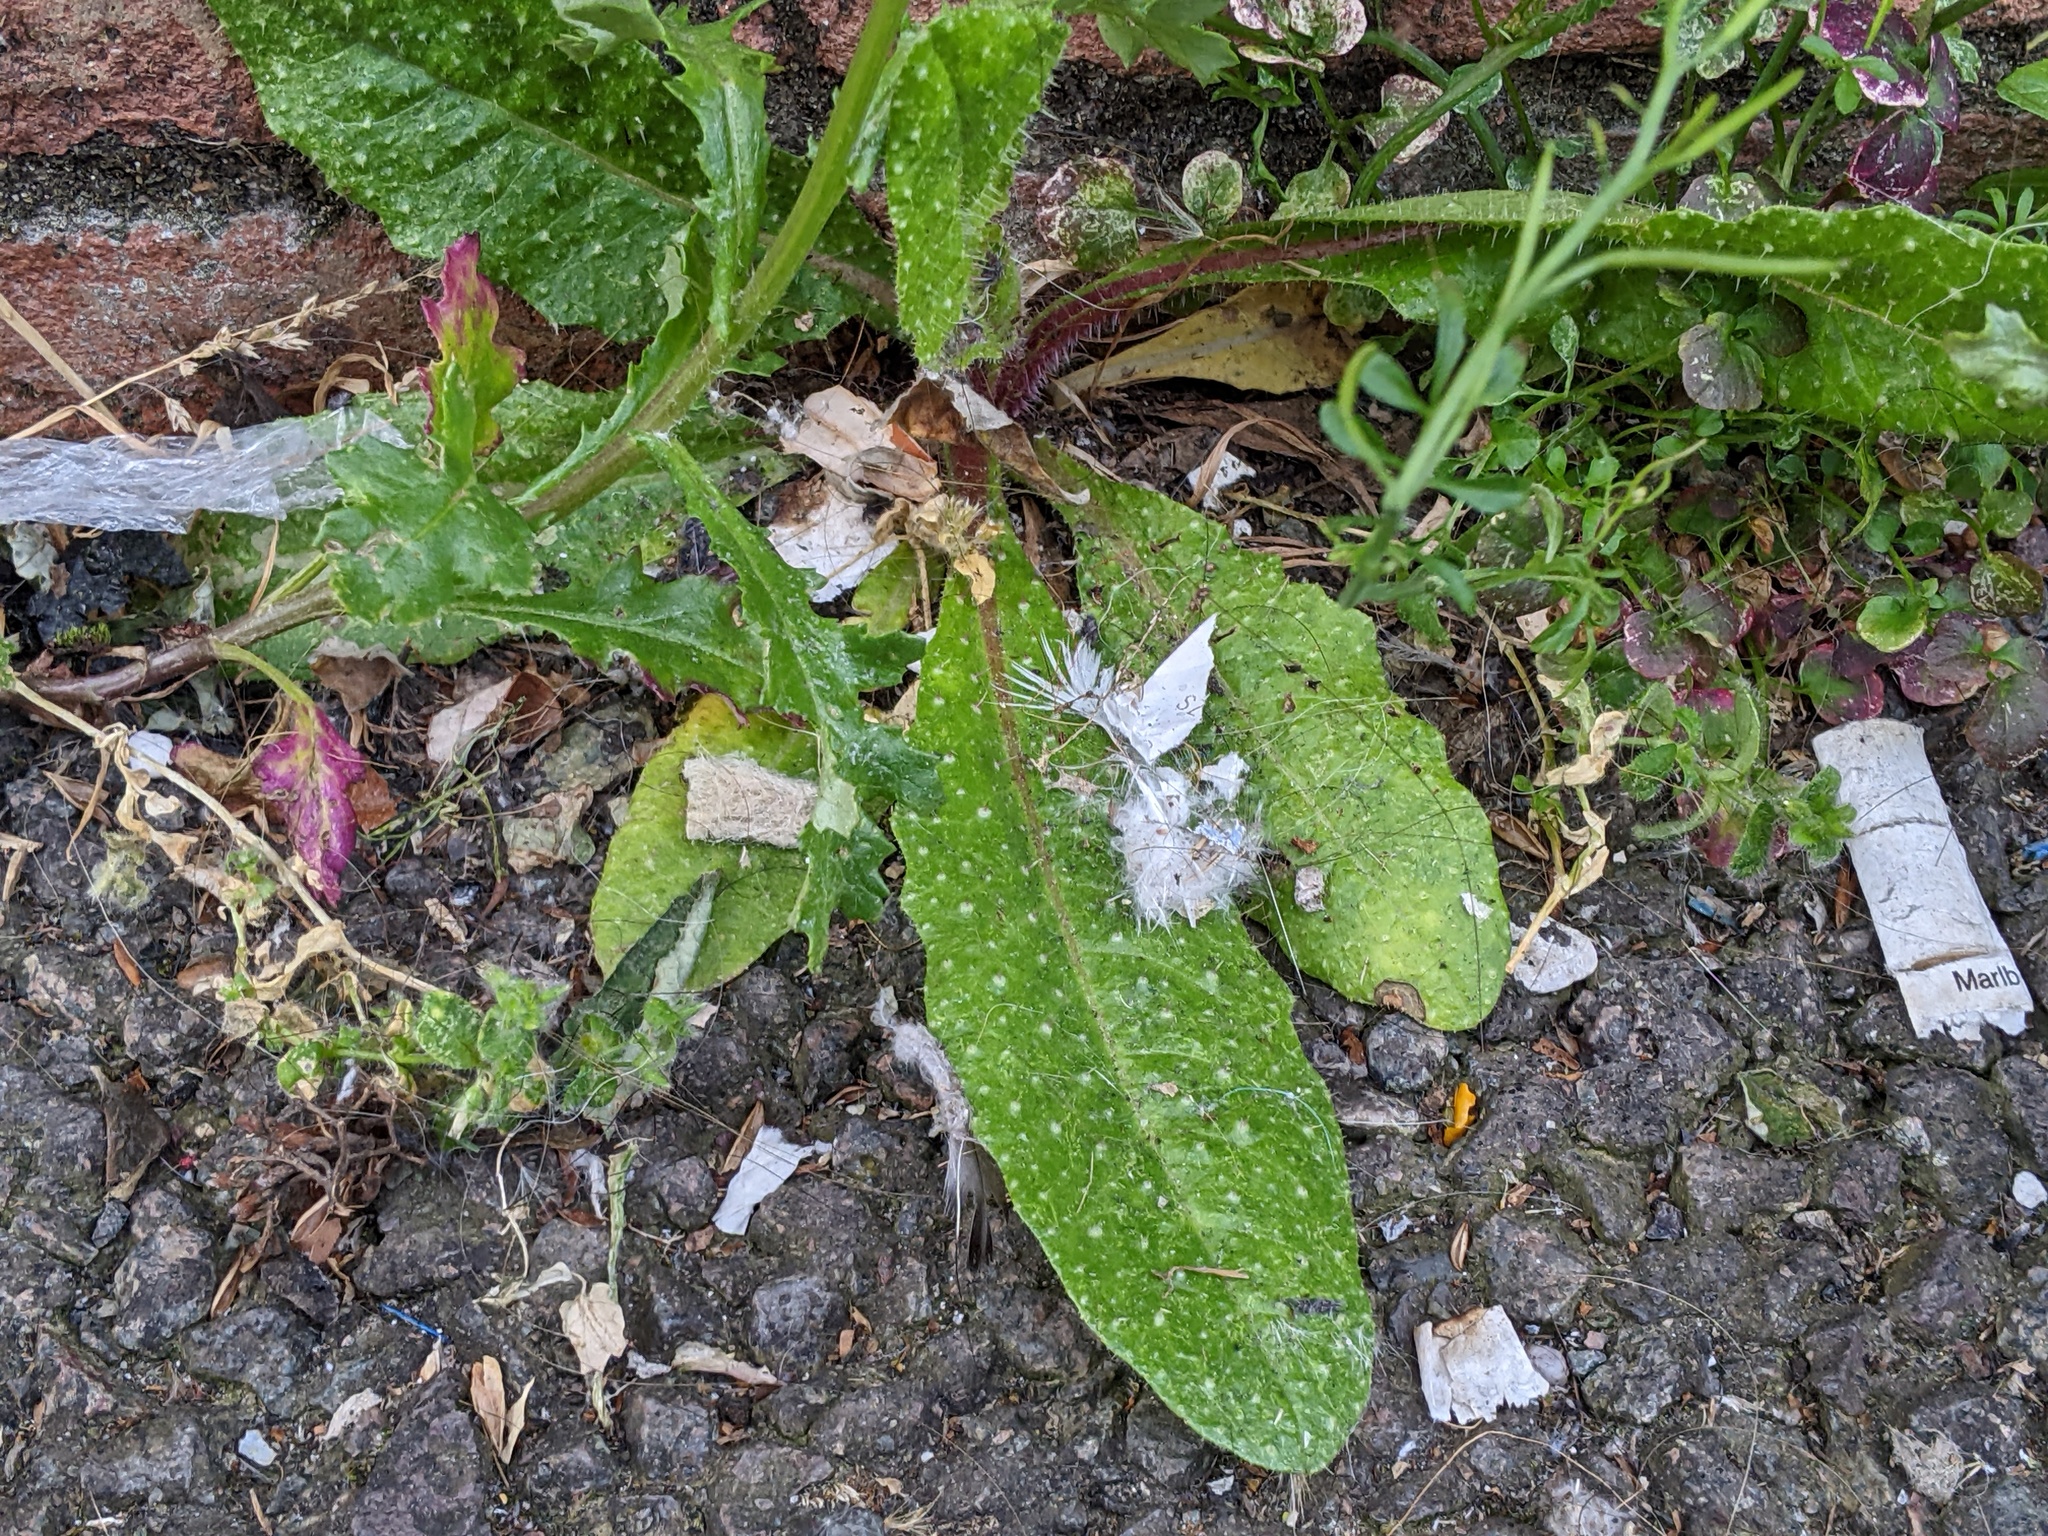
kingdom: Plantae
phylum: Tracheophyta
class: Magnoliopsida
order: Asterales
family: Asteraceae
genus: Helminthotheca
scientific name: Helminthotheca echioides
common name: Ox-tongue
